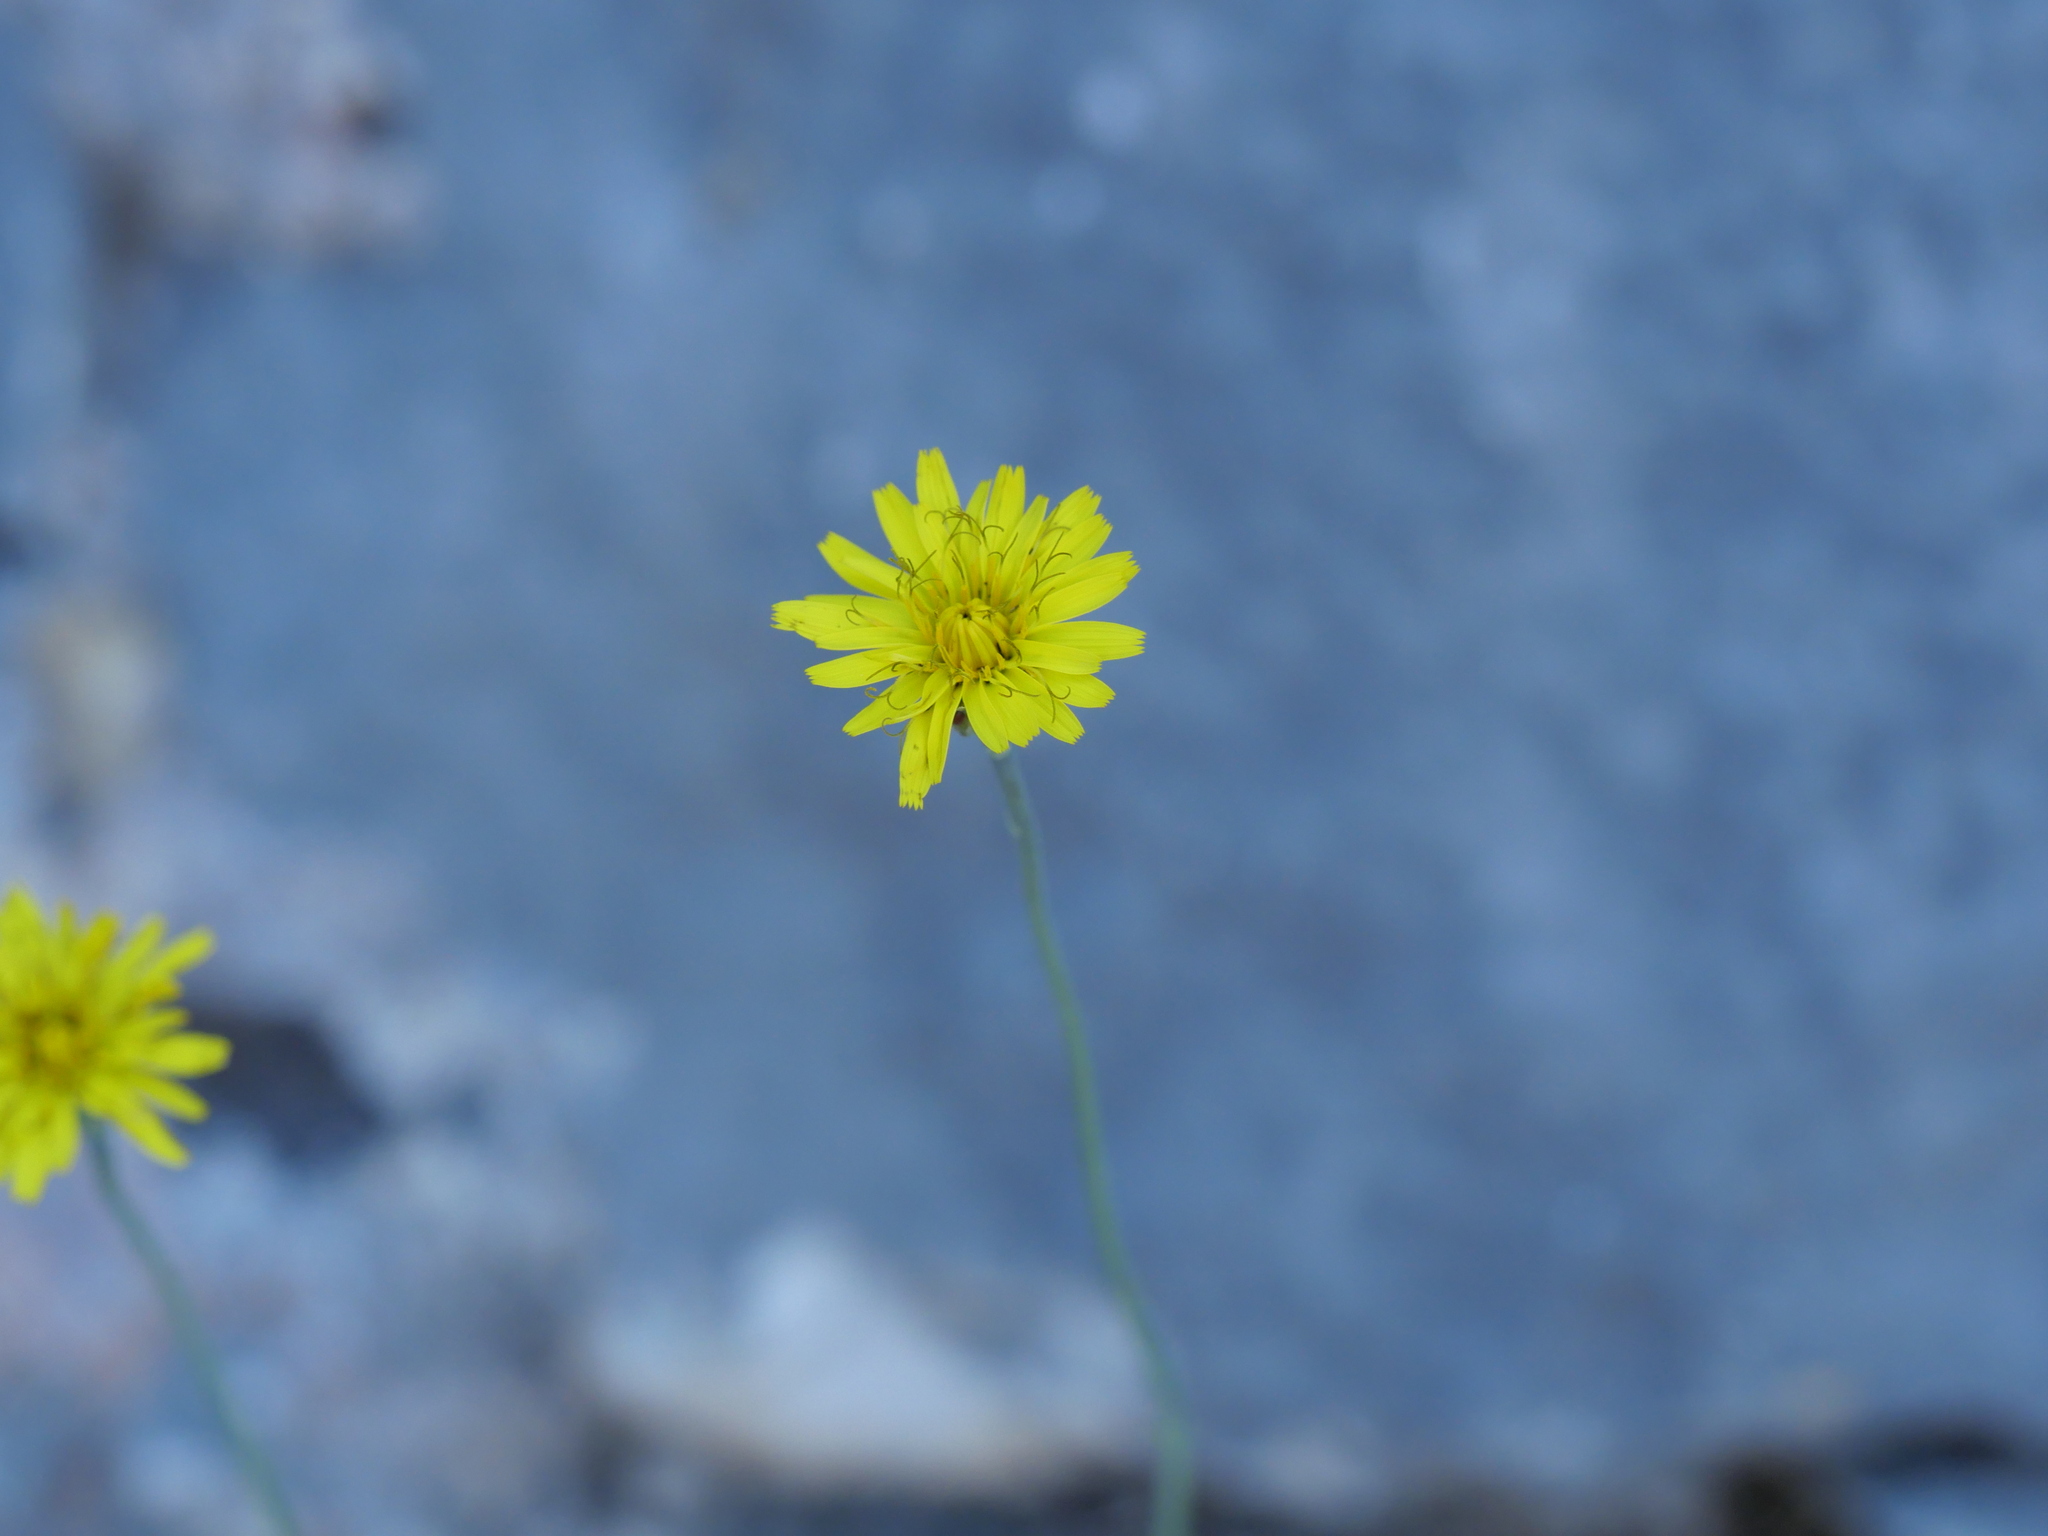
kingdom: Plantae
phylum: Tracheophyta
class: Magnoliopsida
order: Asterales
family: Asteraceae
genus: Reichardia
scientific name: Reichardia picroides
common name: Common brighteyes
